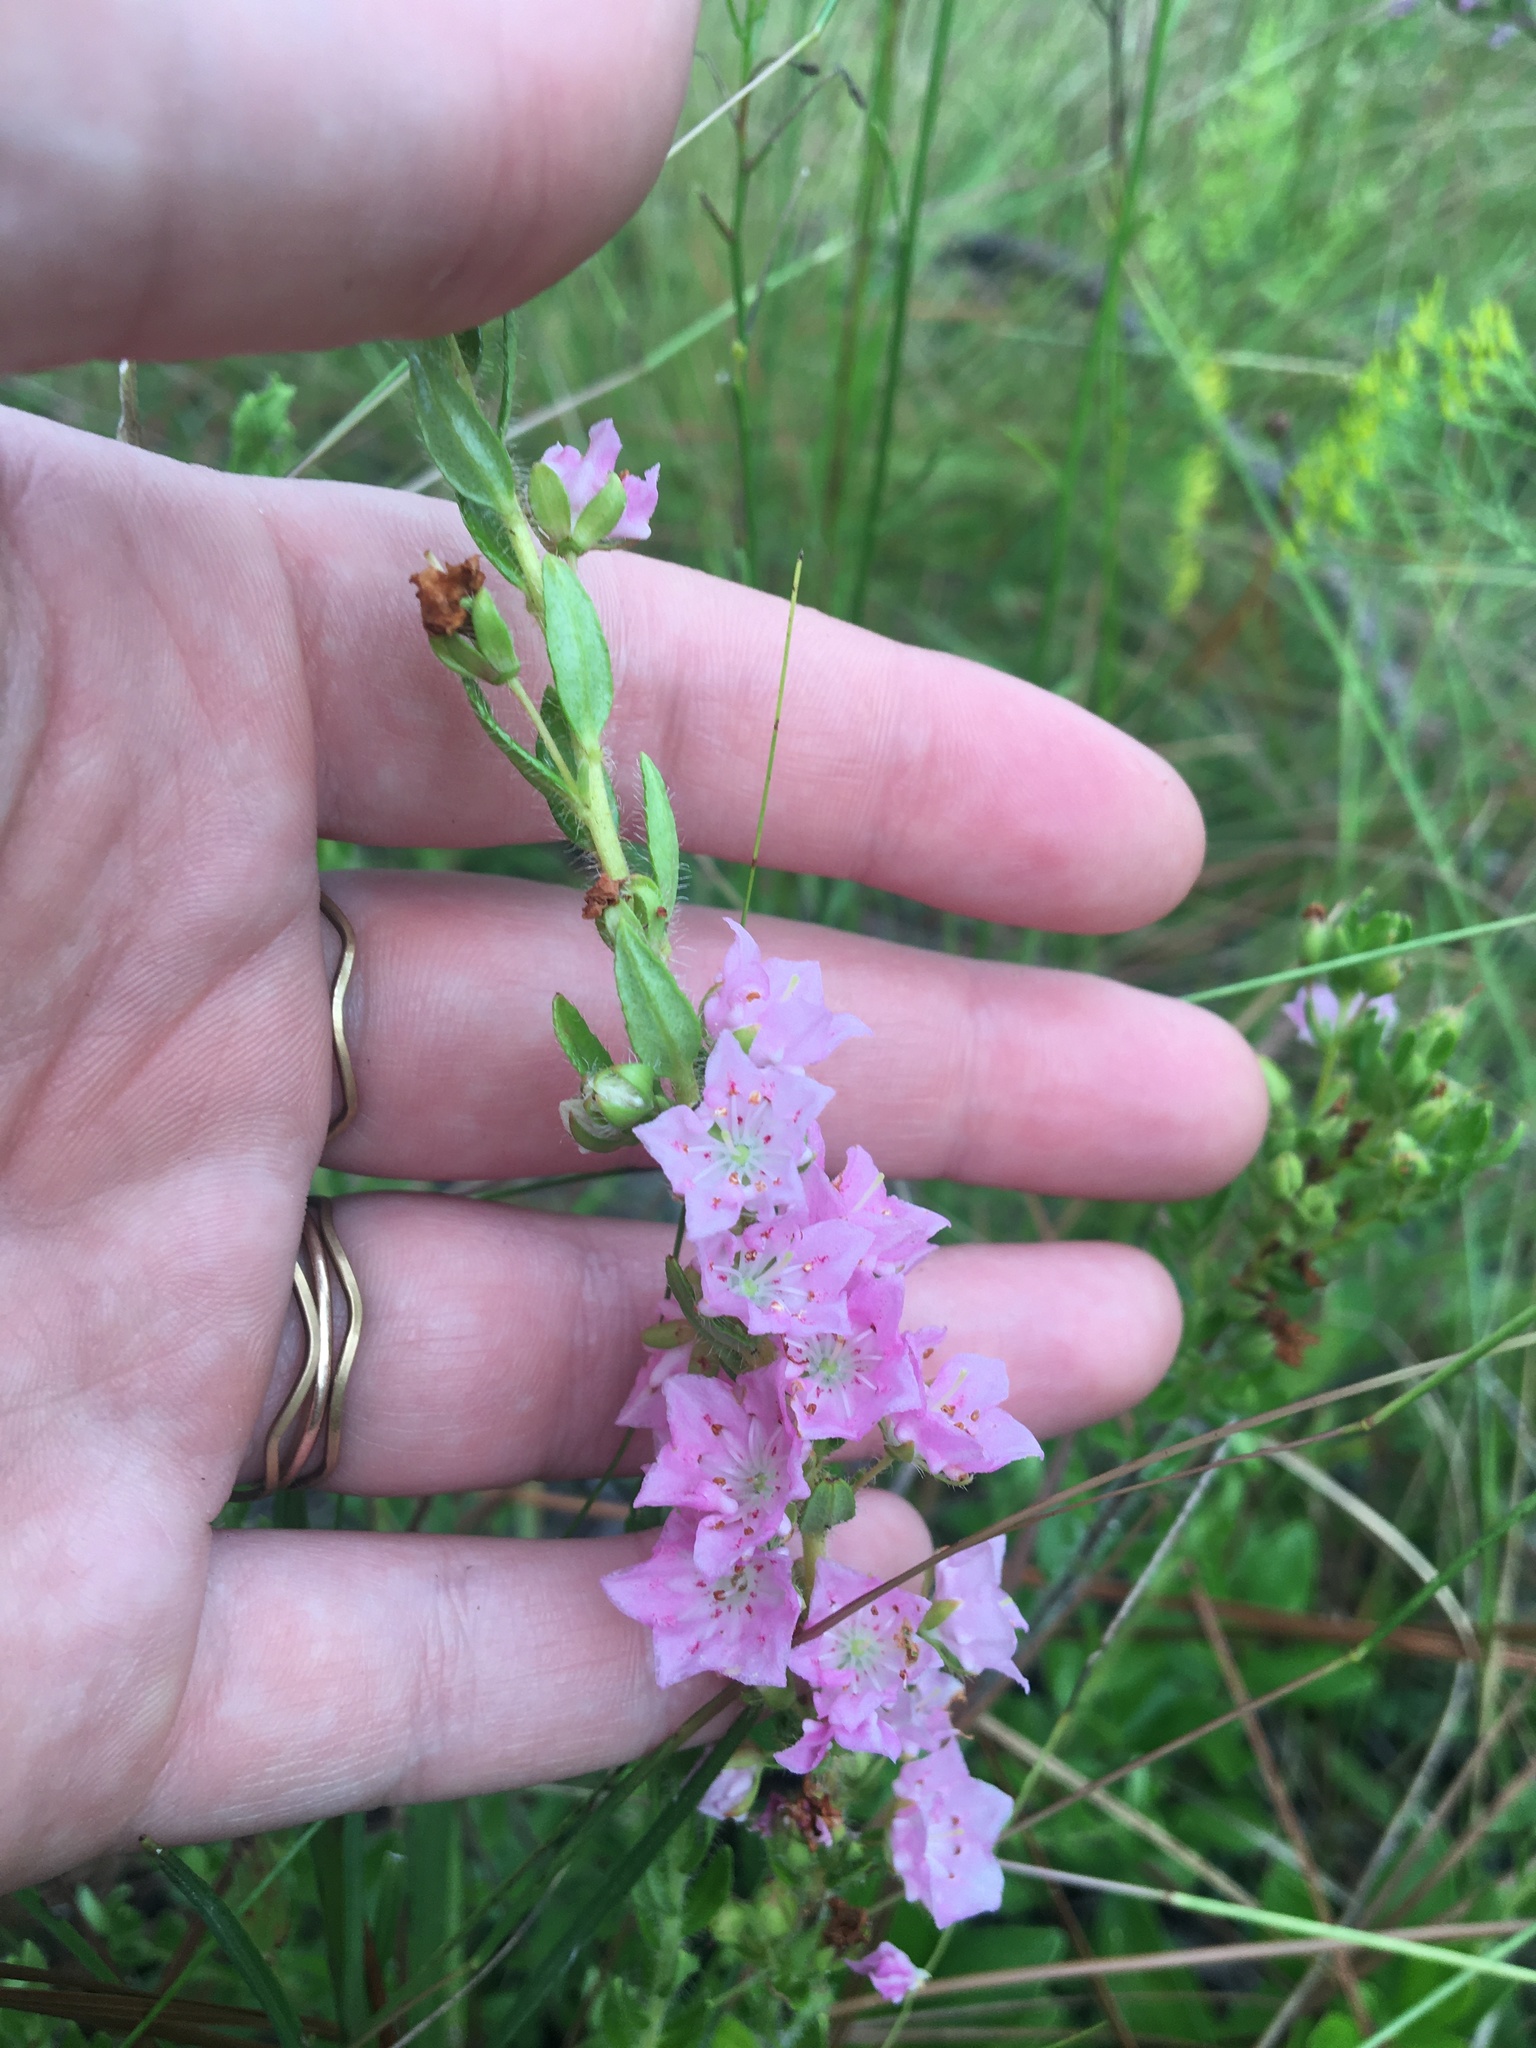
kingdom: Plantae
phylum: Tracheophyta
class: Magnoliopsida
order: Ericales
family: Ericaceae
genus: Kalmia
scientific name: Kalmia hirsuta
